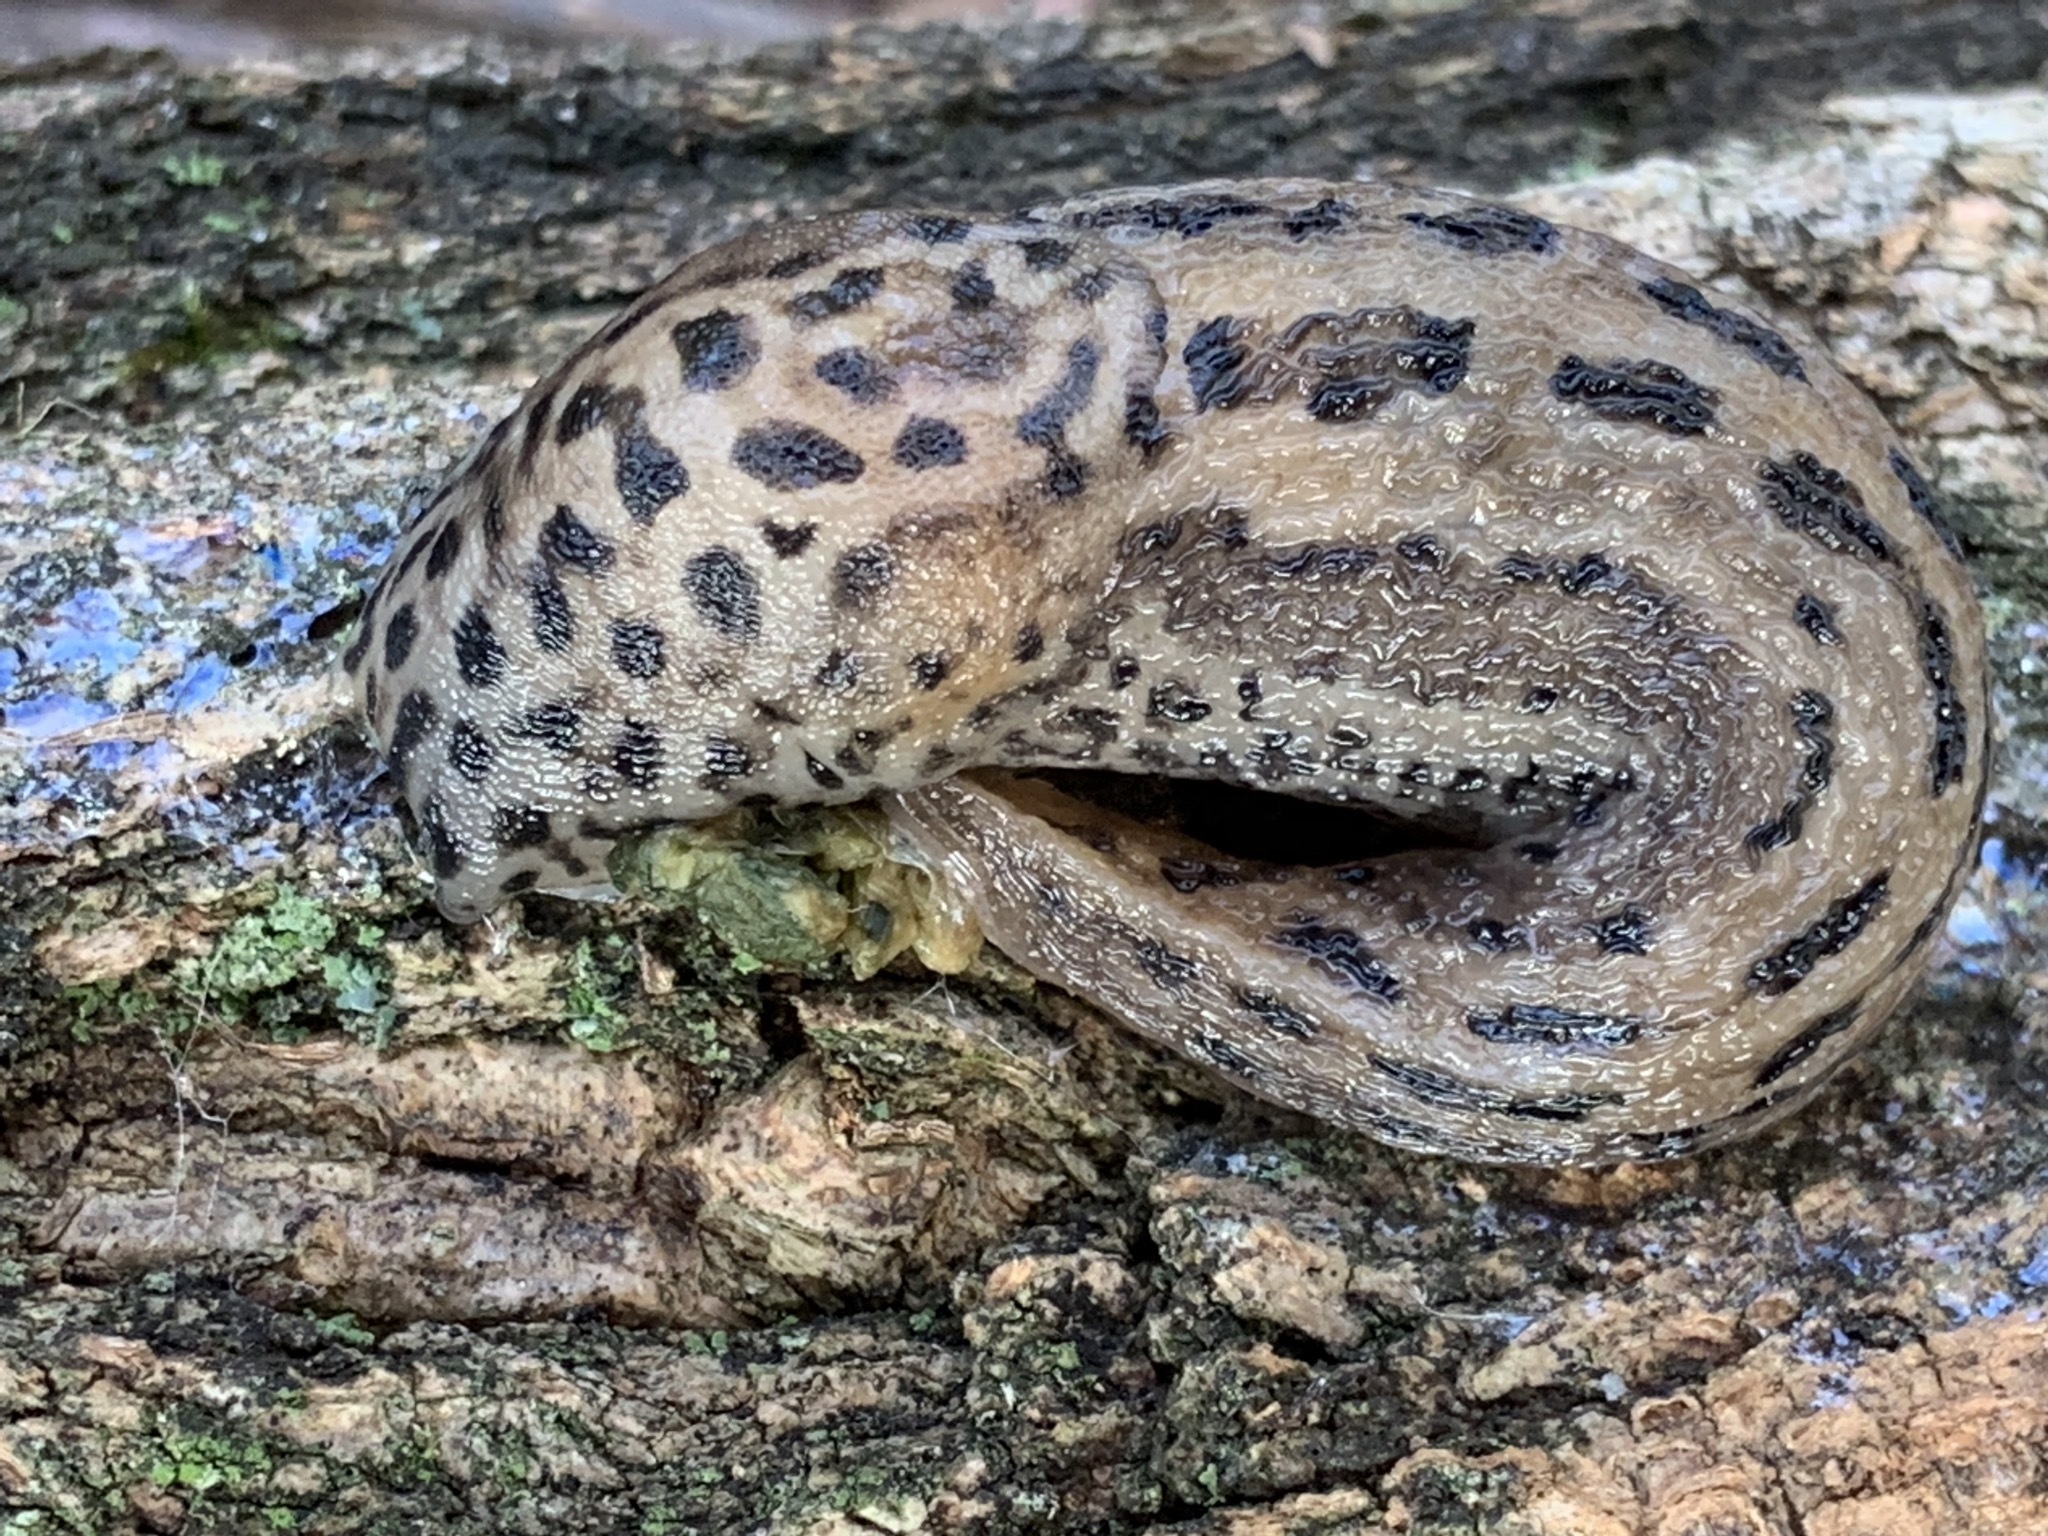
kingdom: Animalia
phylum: Mollusca
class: Gastropoda
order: Stylommatophora
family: Limacidae
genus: Limax
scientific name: Limax maximus
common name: Great grey slug
